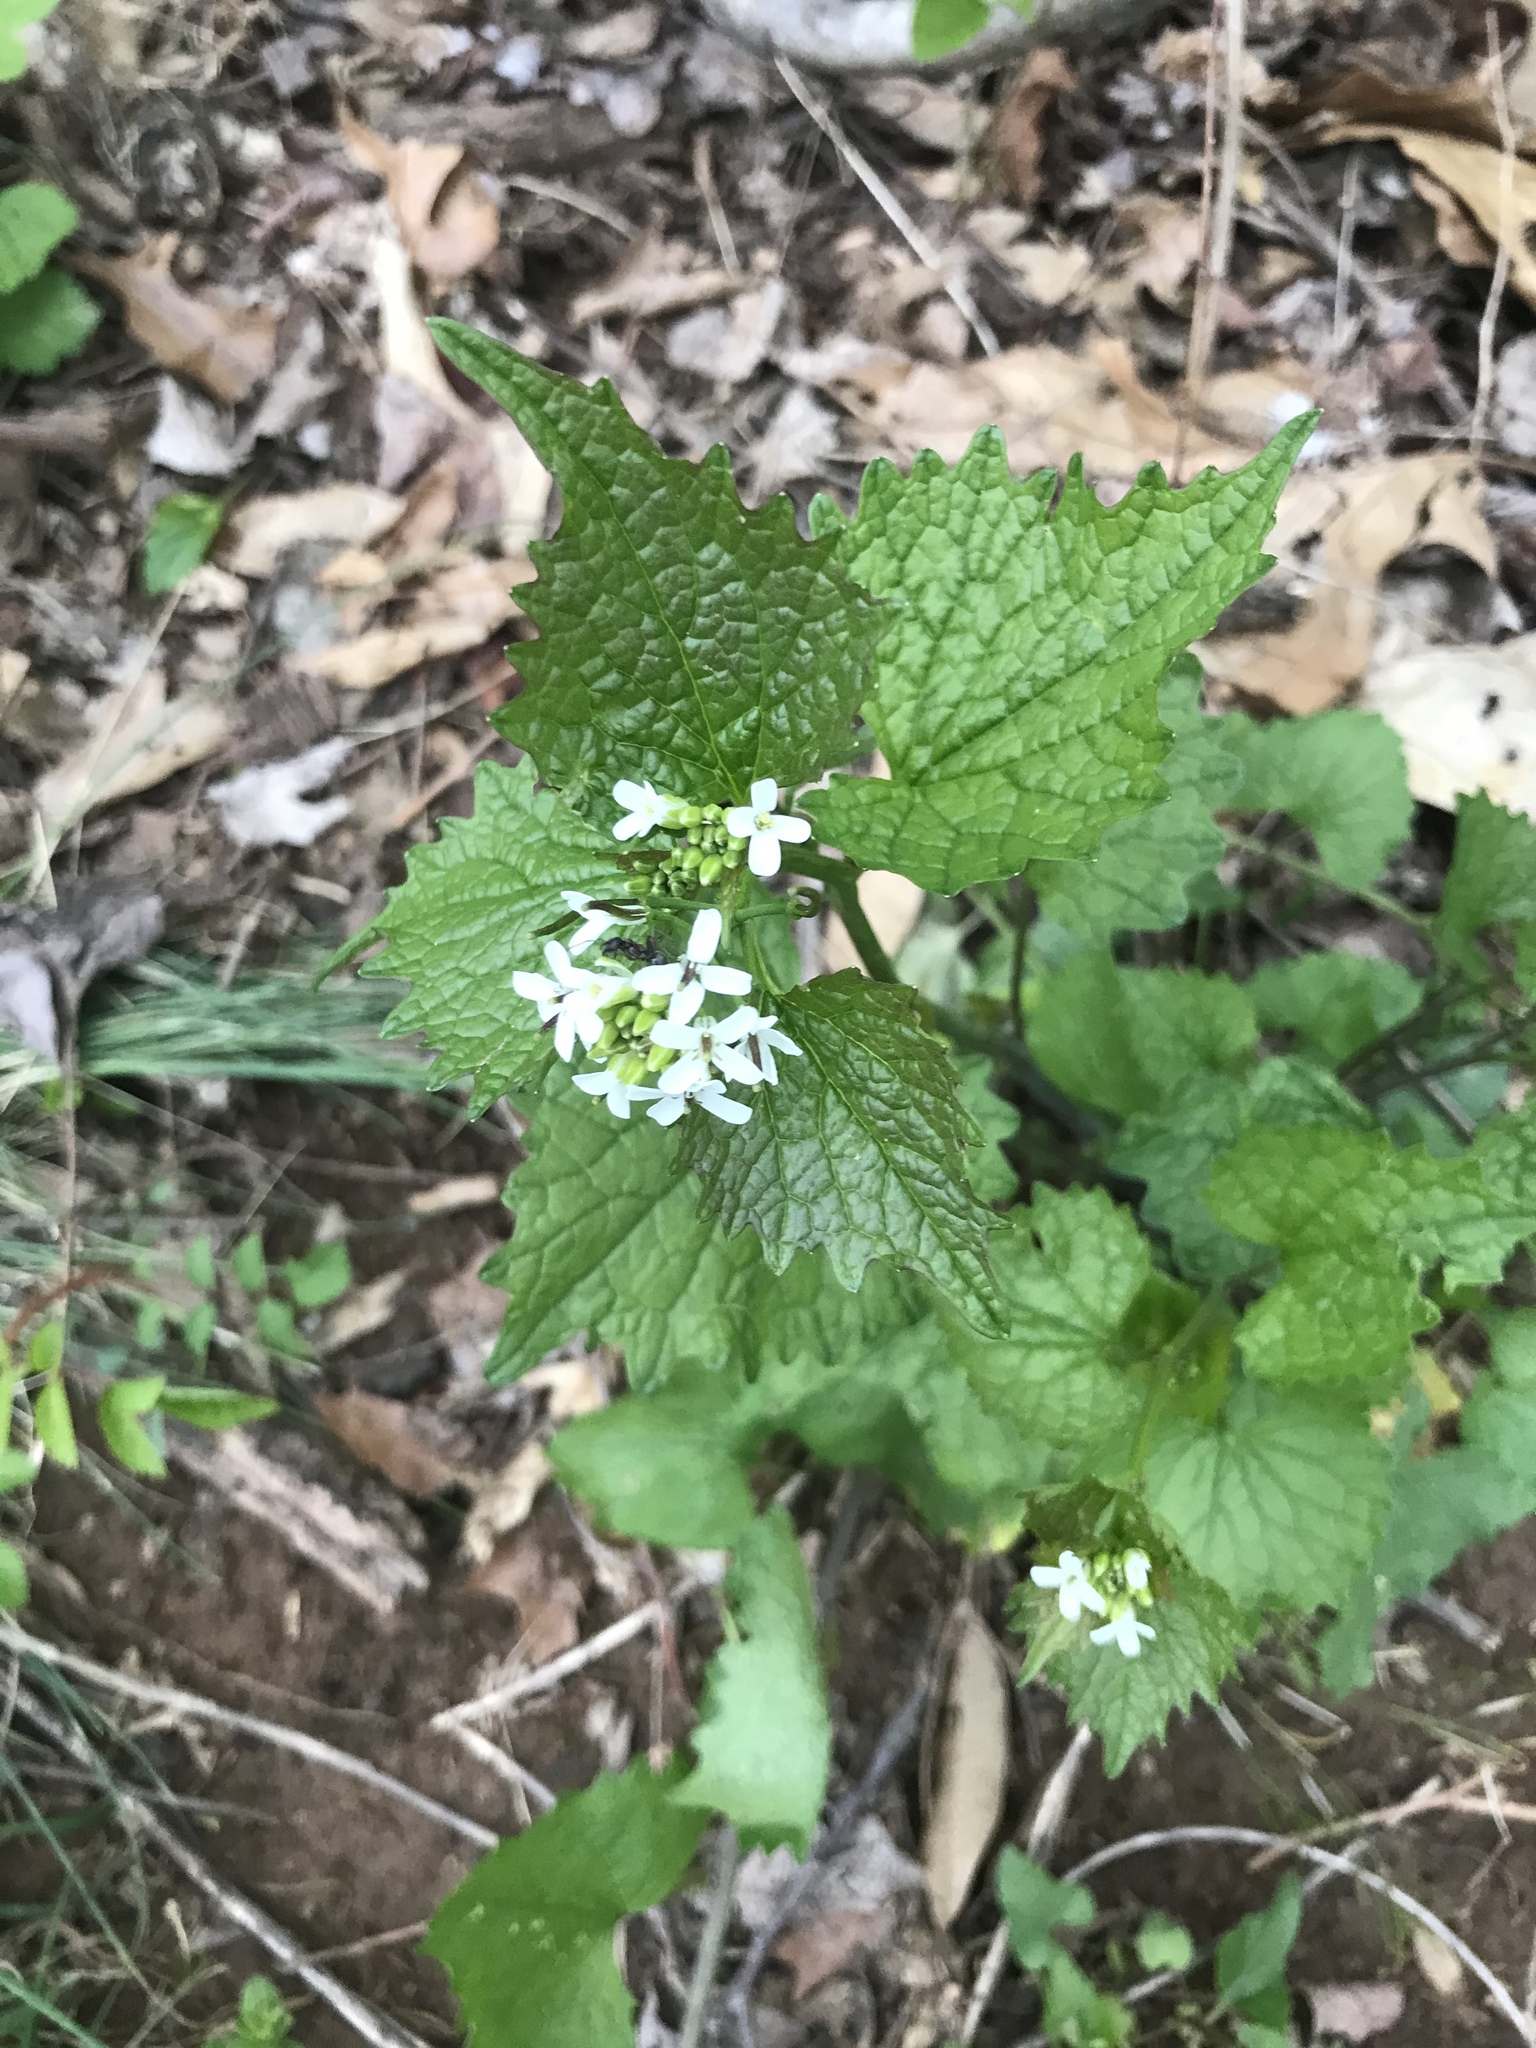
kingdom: Plantae
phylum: Tracheophyta
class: Magnoliopsida
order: Brassicales
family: Brassicaceae
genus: Alliaria
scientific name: Alliaria petiolata
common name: Garlic mustard
